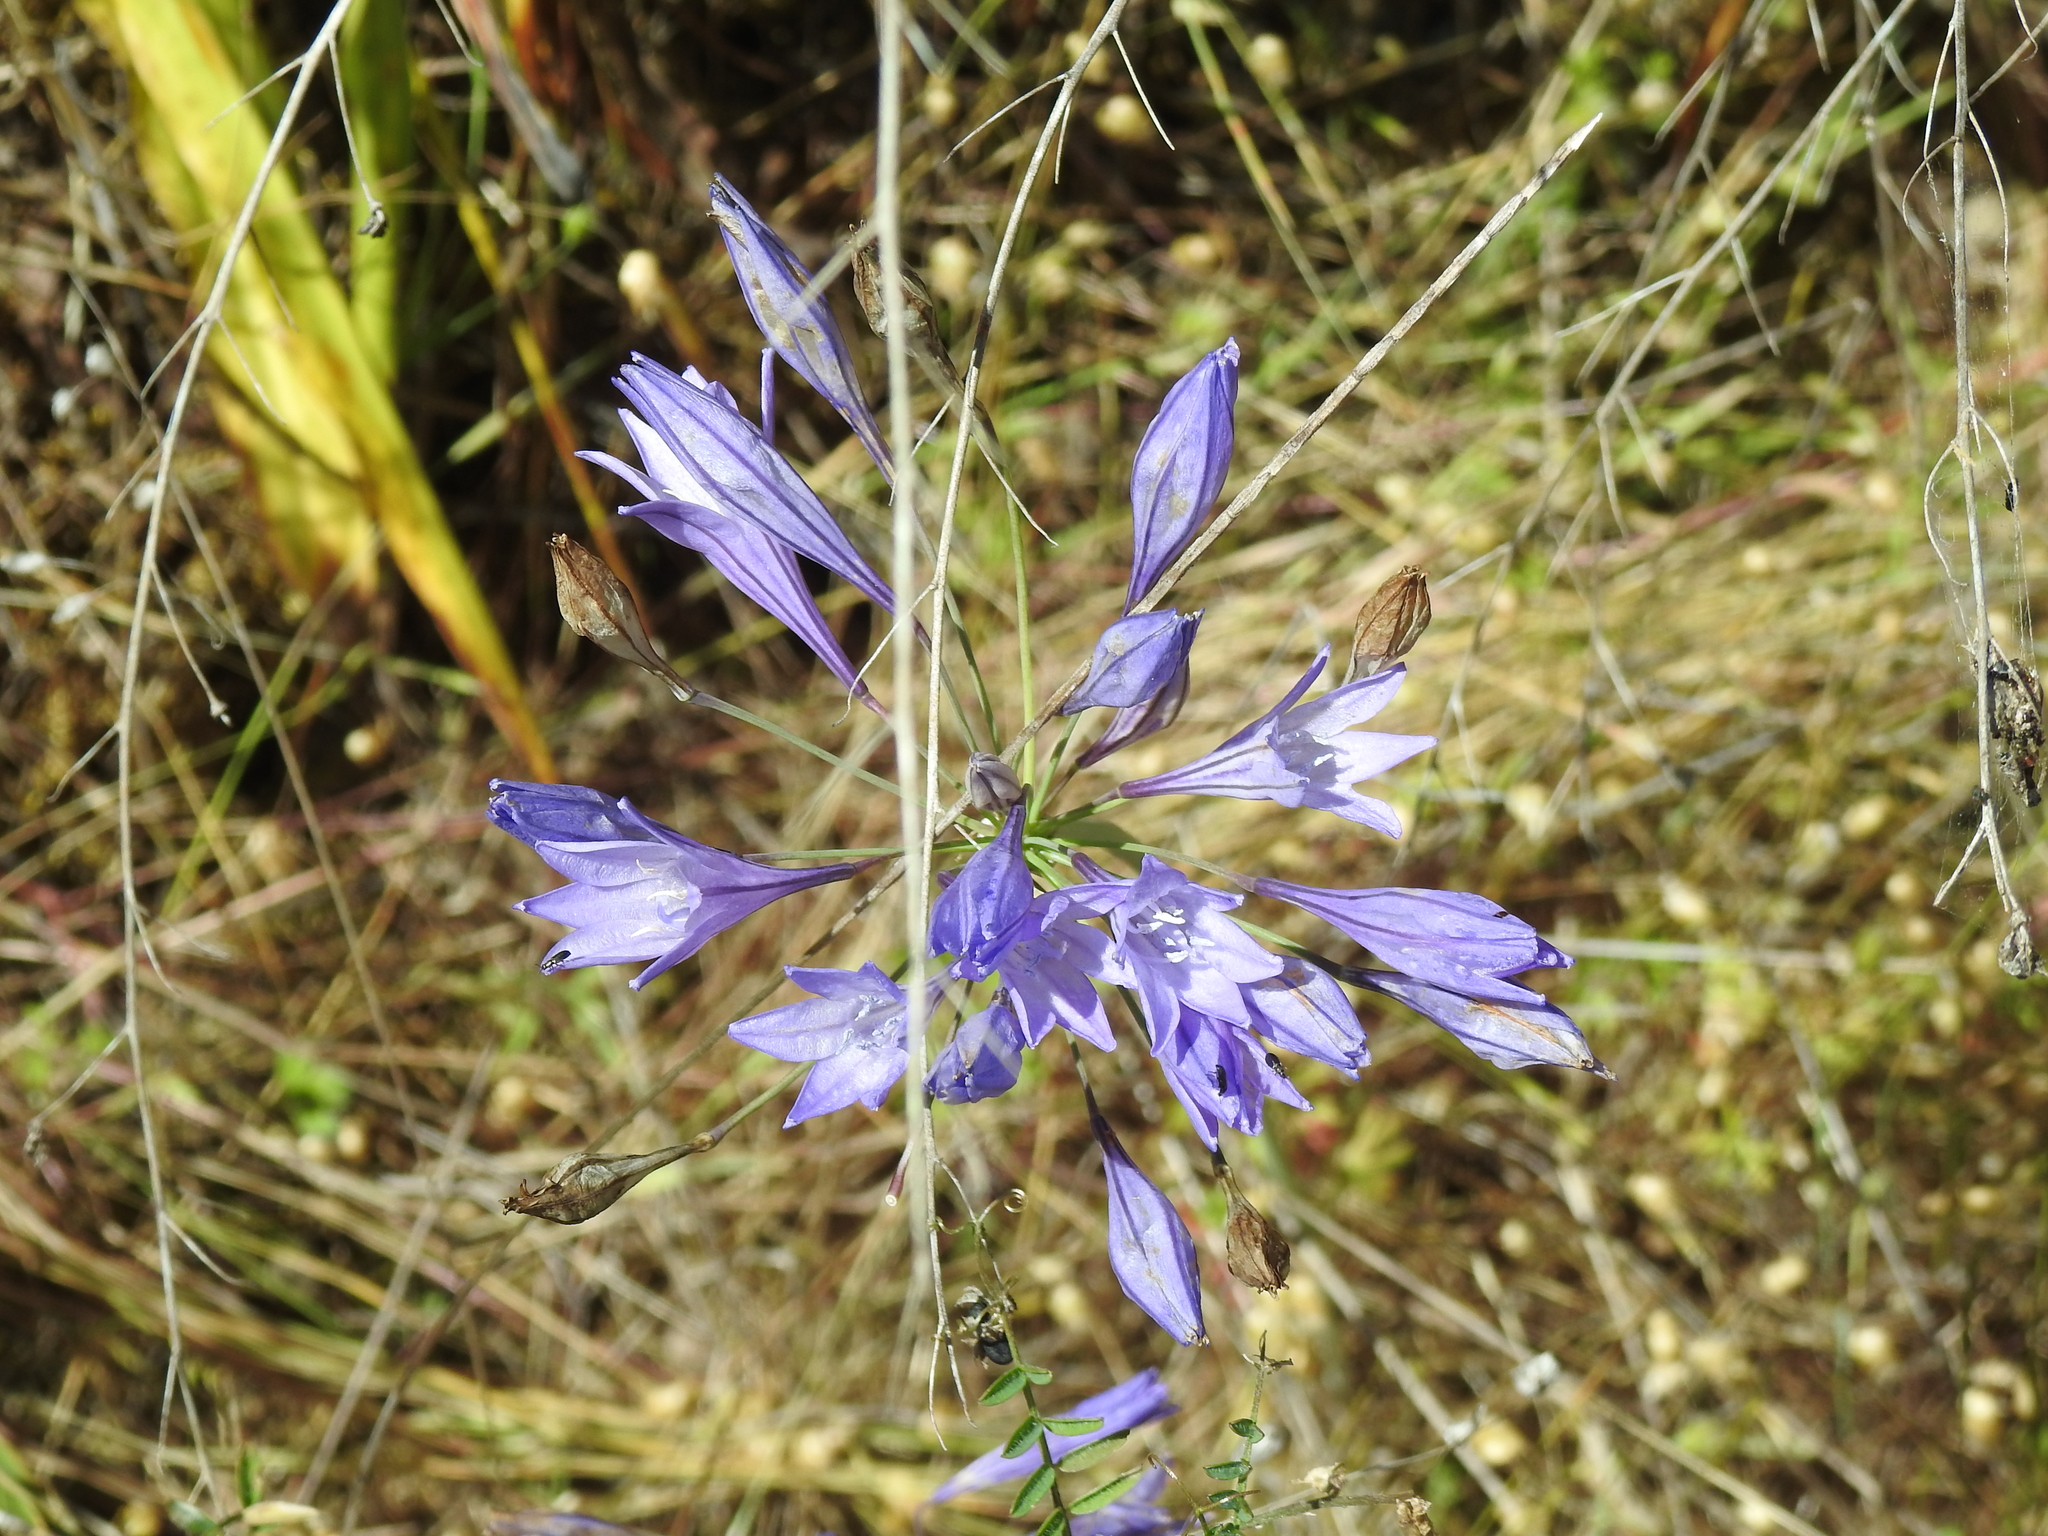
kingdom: Plantae
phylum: Tracheophyta
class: Liliopsida
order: Asparagales
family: Asparagaceae
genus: Triteleia
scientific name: Triteleia laxa
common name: Triplet-lily
